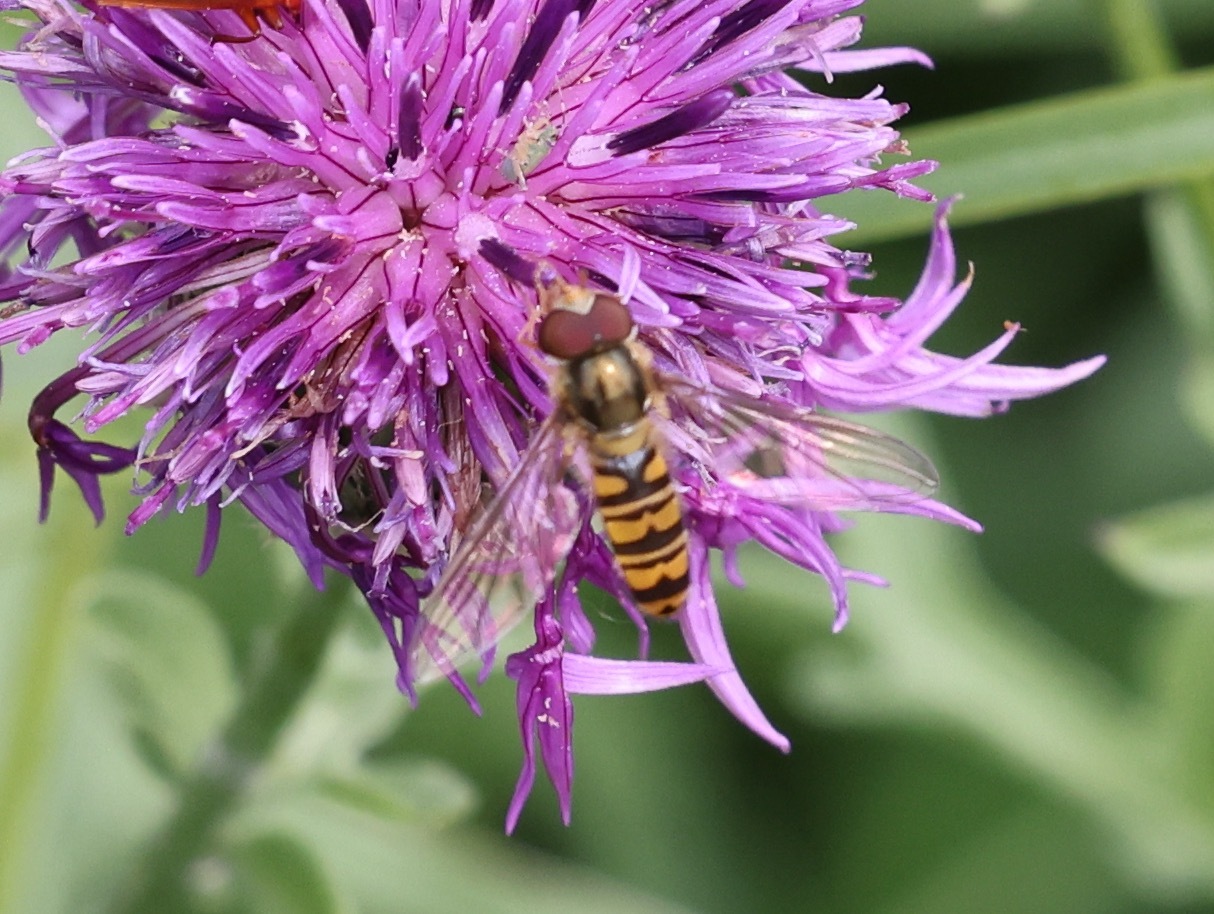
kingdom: Animalia
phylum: Arthropoda
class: Insecta
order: Diptera
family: Syrphidae
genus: Episyrphus
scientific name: Episyrphus balteatus
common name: Marmalade hoverfly
